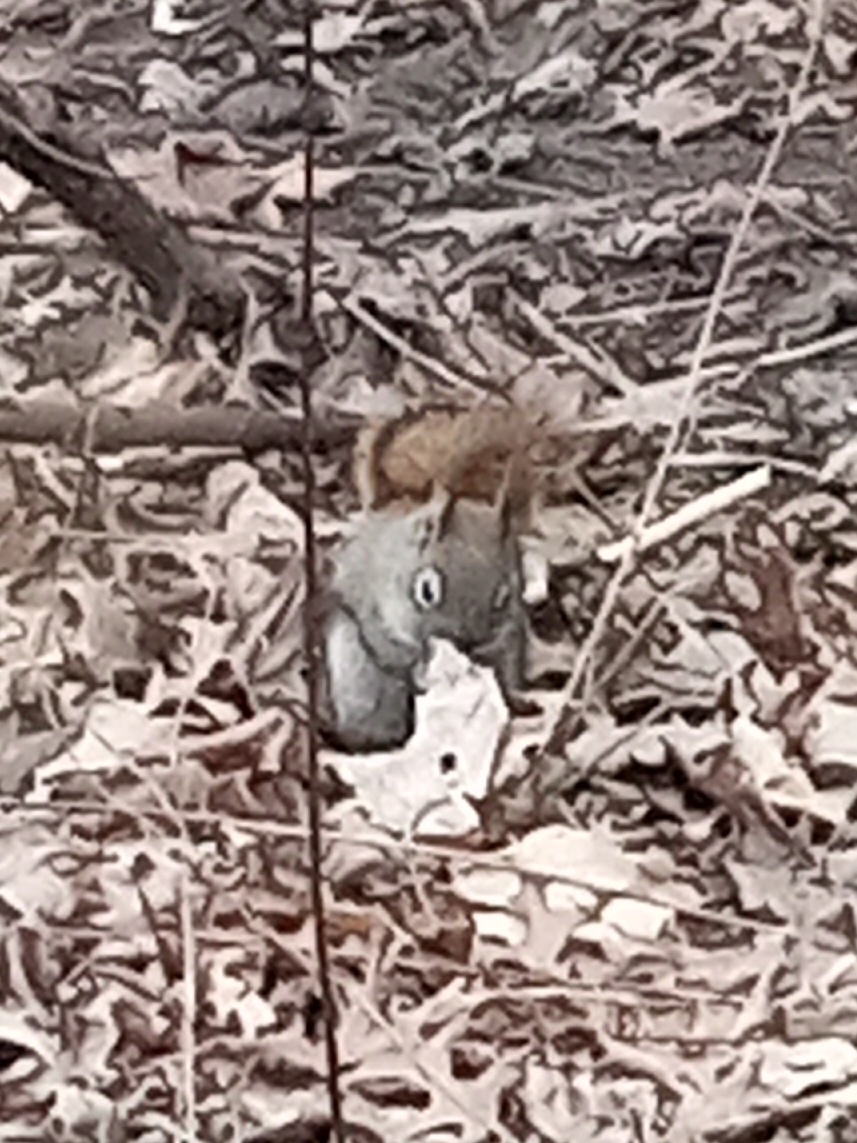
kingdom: Animalia
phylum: Chordata
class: Mammalia
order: Rodentia
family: Sciuridae
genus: Tamiasciurus
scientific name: Tamiasciurus hudsonicus
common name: Red squirrel
